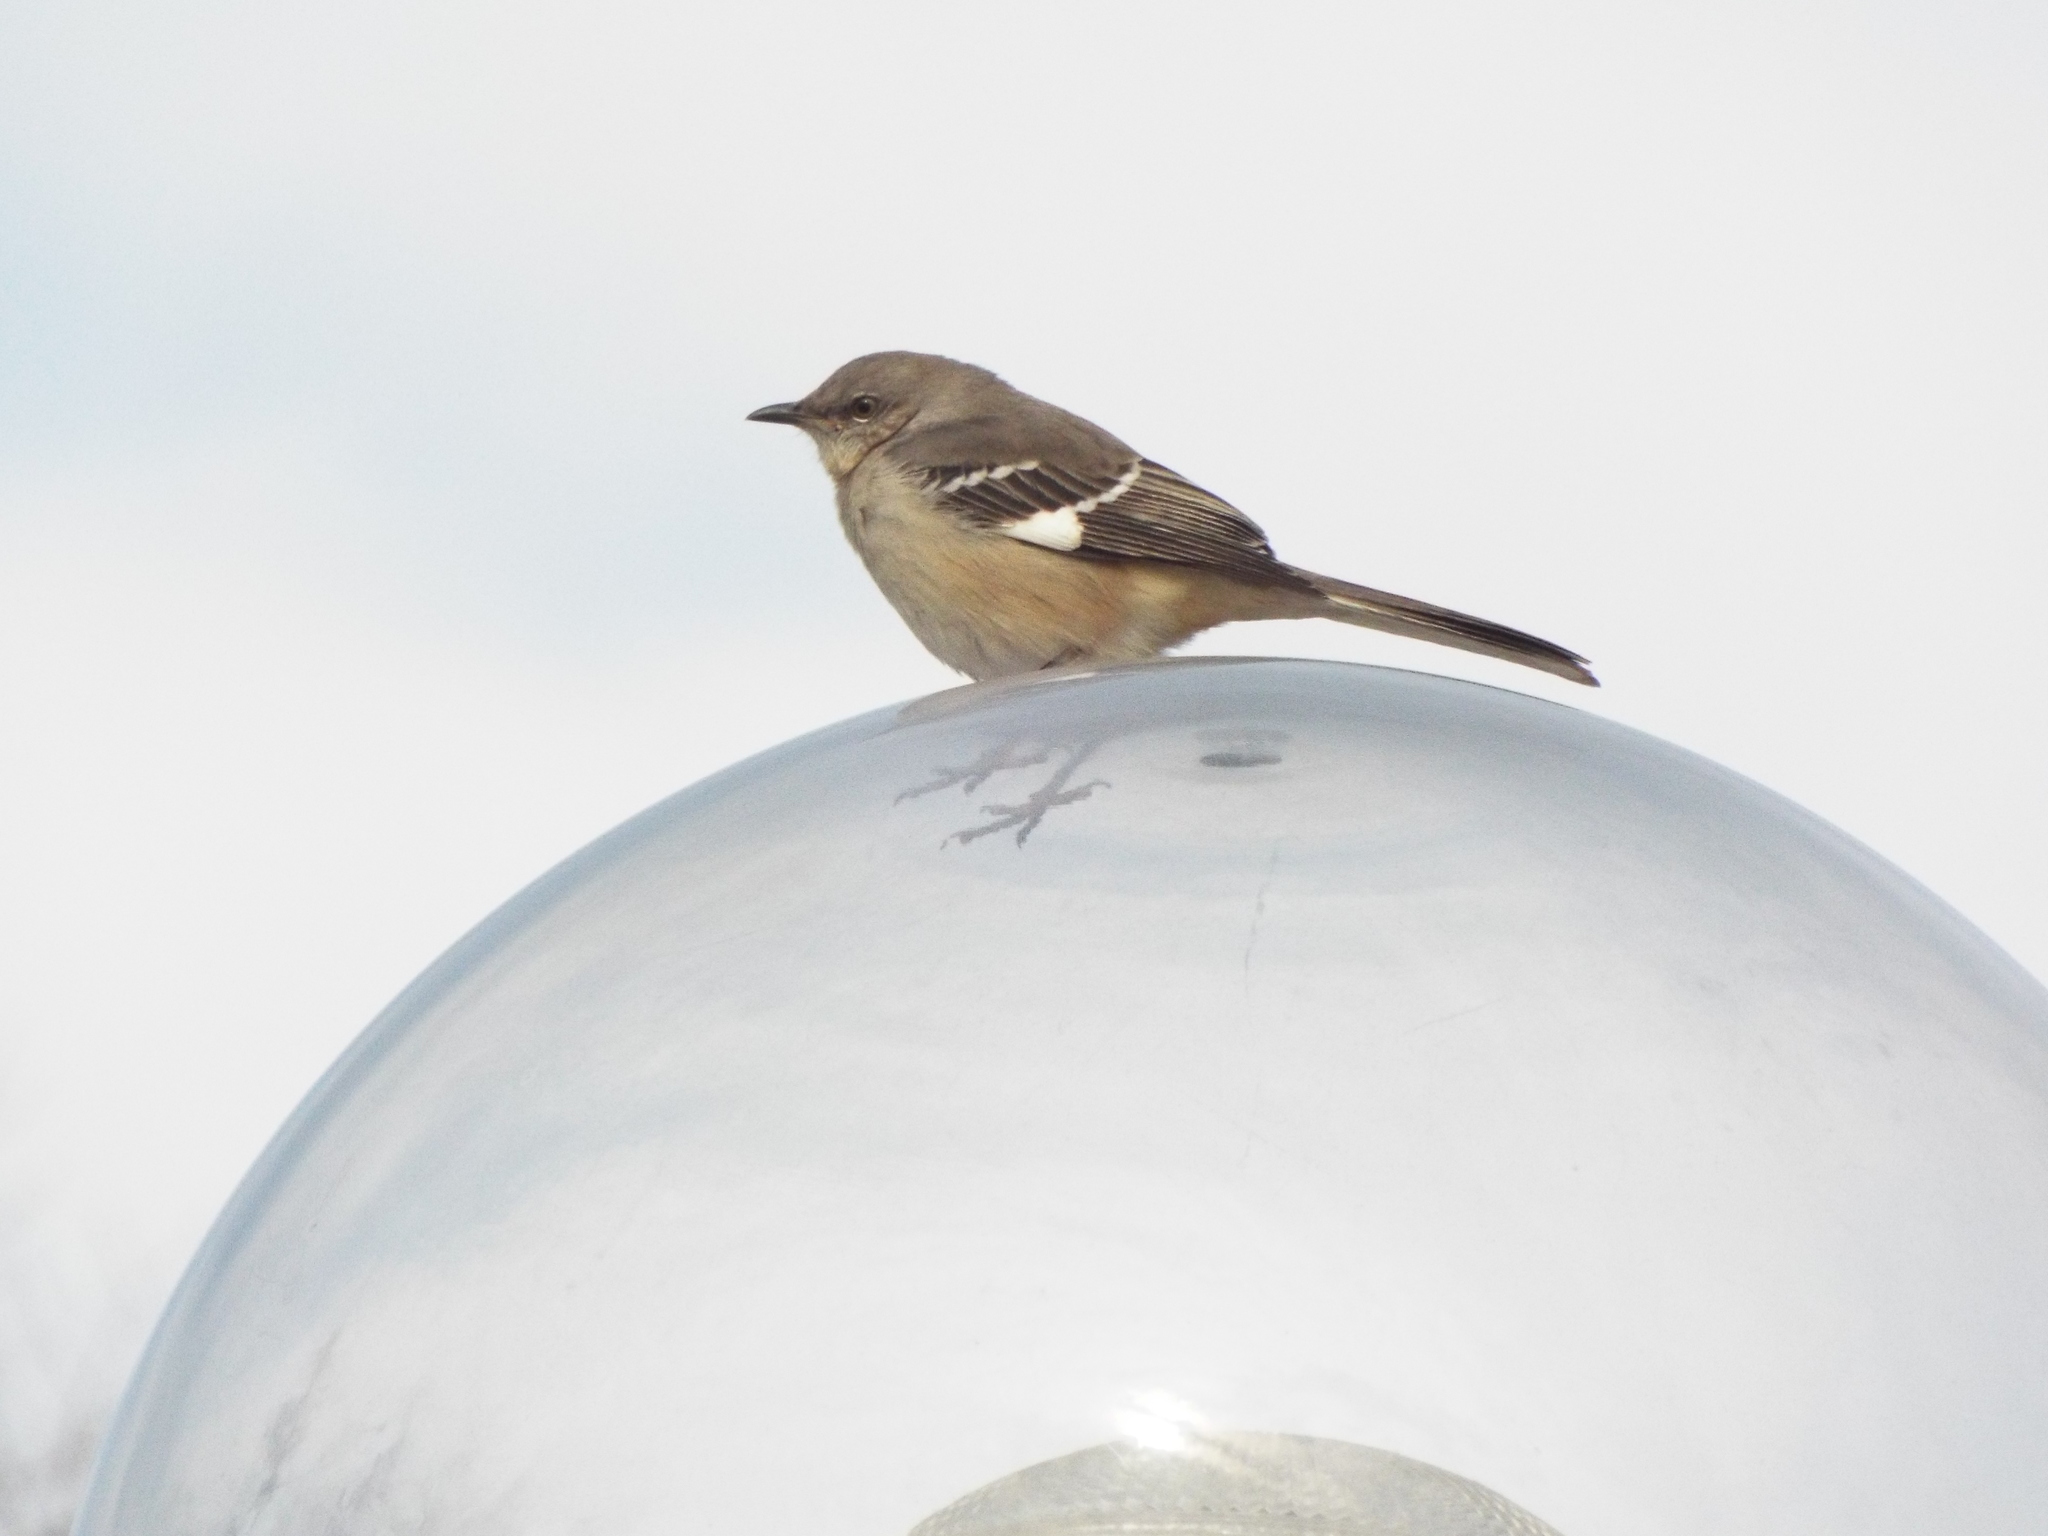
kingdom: Animalia
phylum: Chordata
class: Aves
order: Passeriformes
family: Mimidae
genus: Mimus
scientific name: Mimus polyglottos
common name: Northern mockingbird
